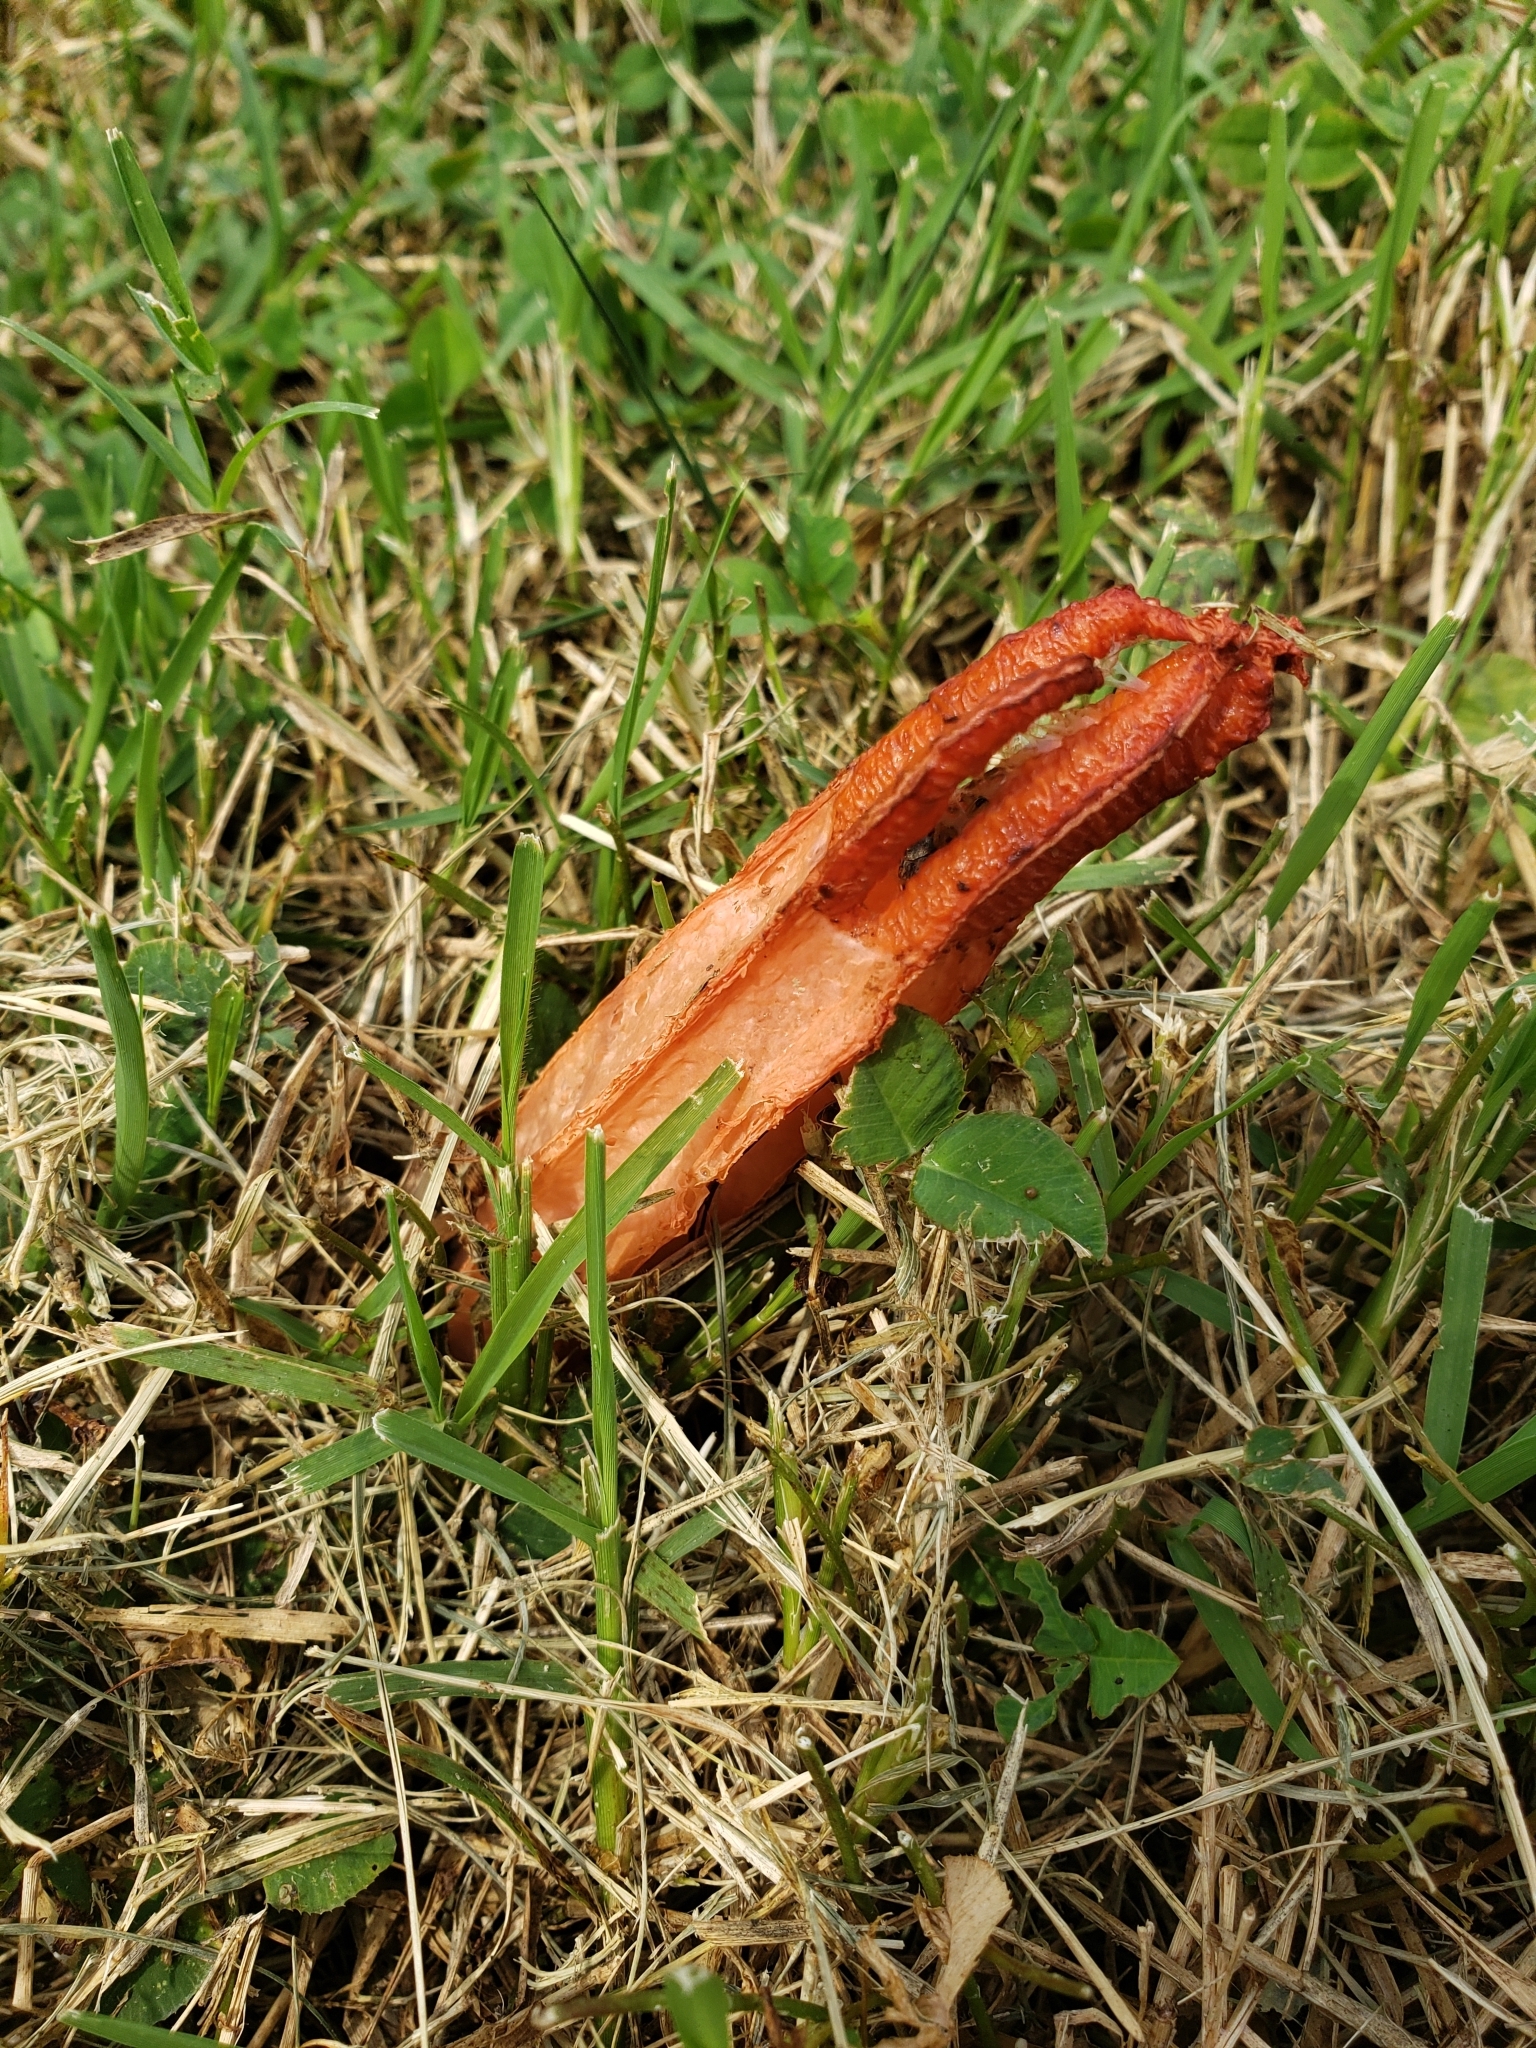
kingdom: Fungi
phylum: Basidiomycota
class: Agaricomycetes
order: Phallales
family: Phallaceae
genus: Lysurus
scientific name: Lysurus mokusin
